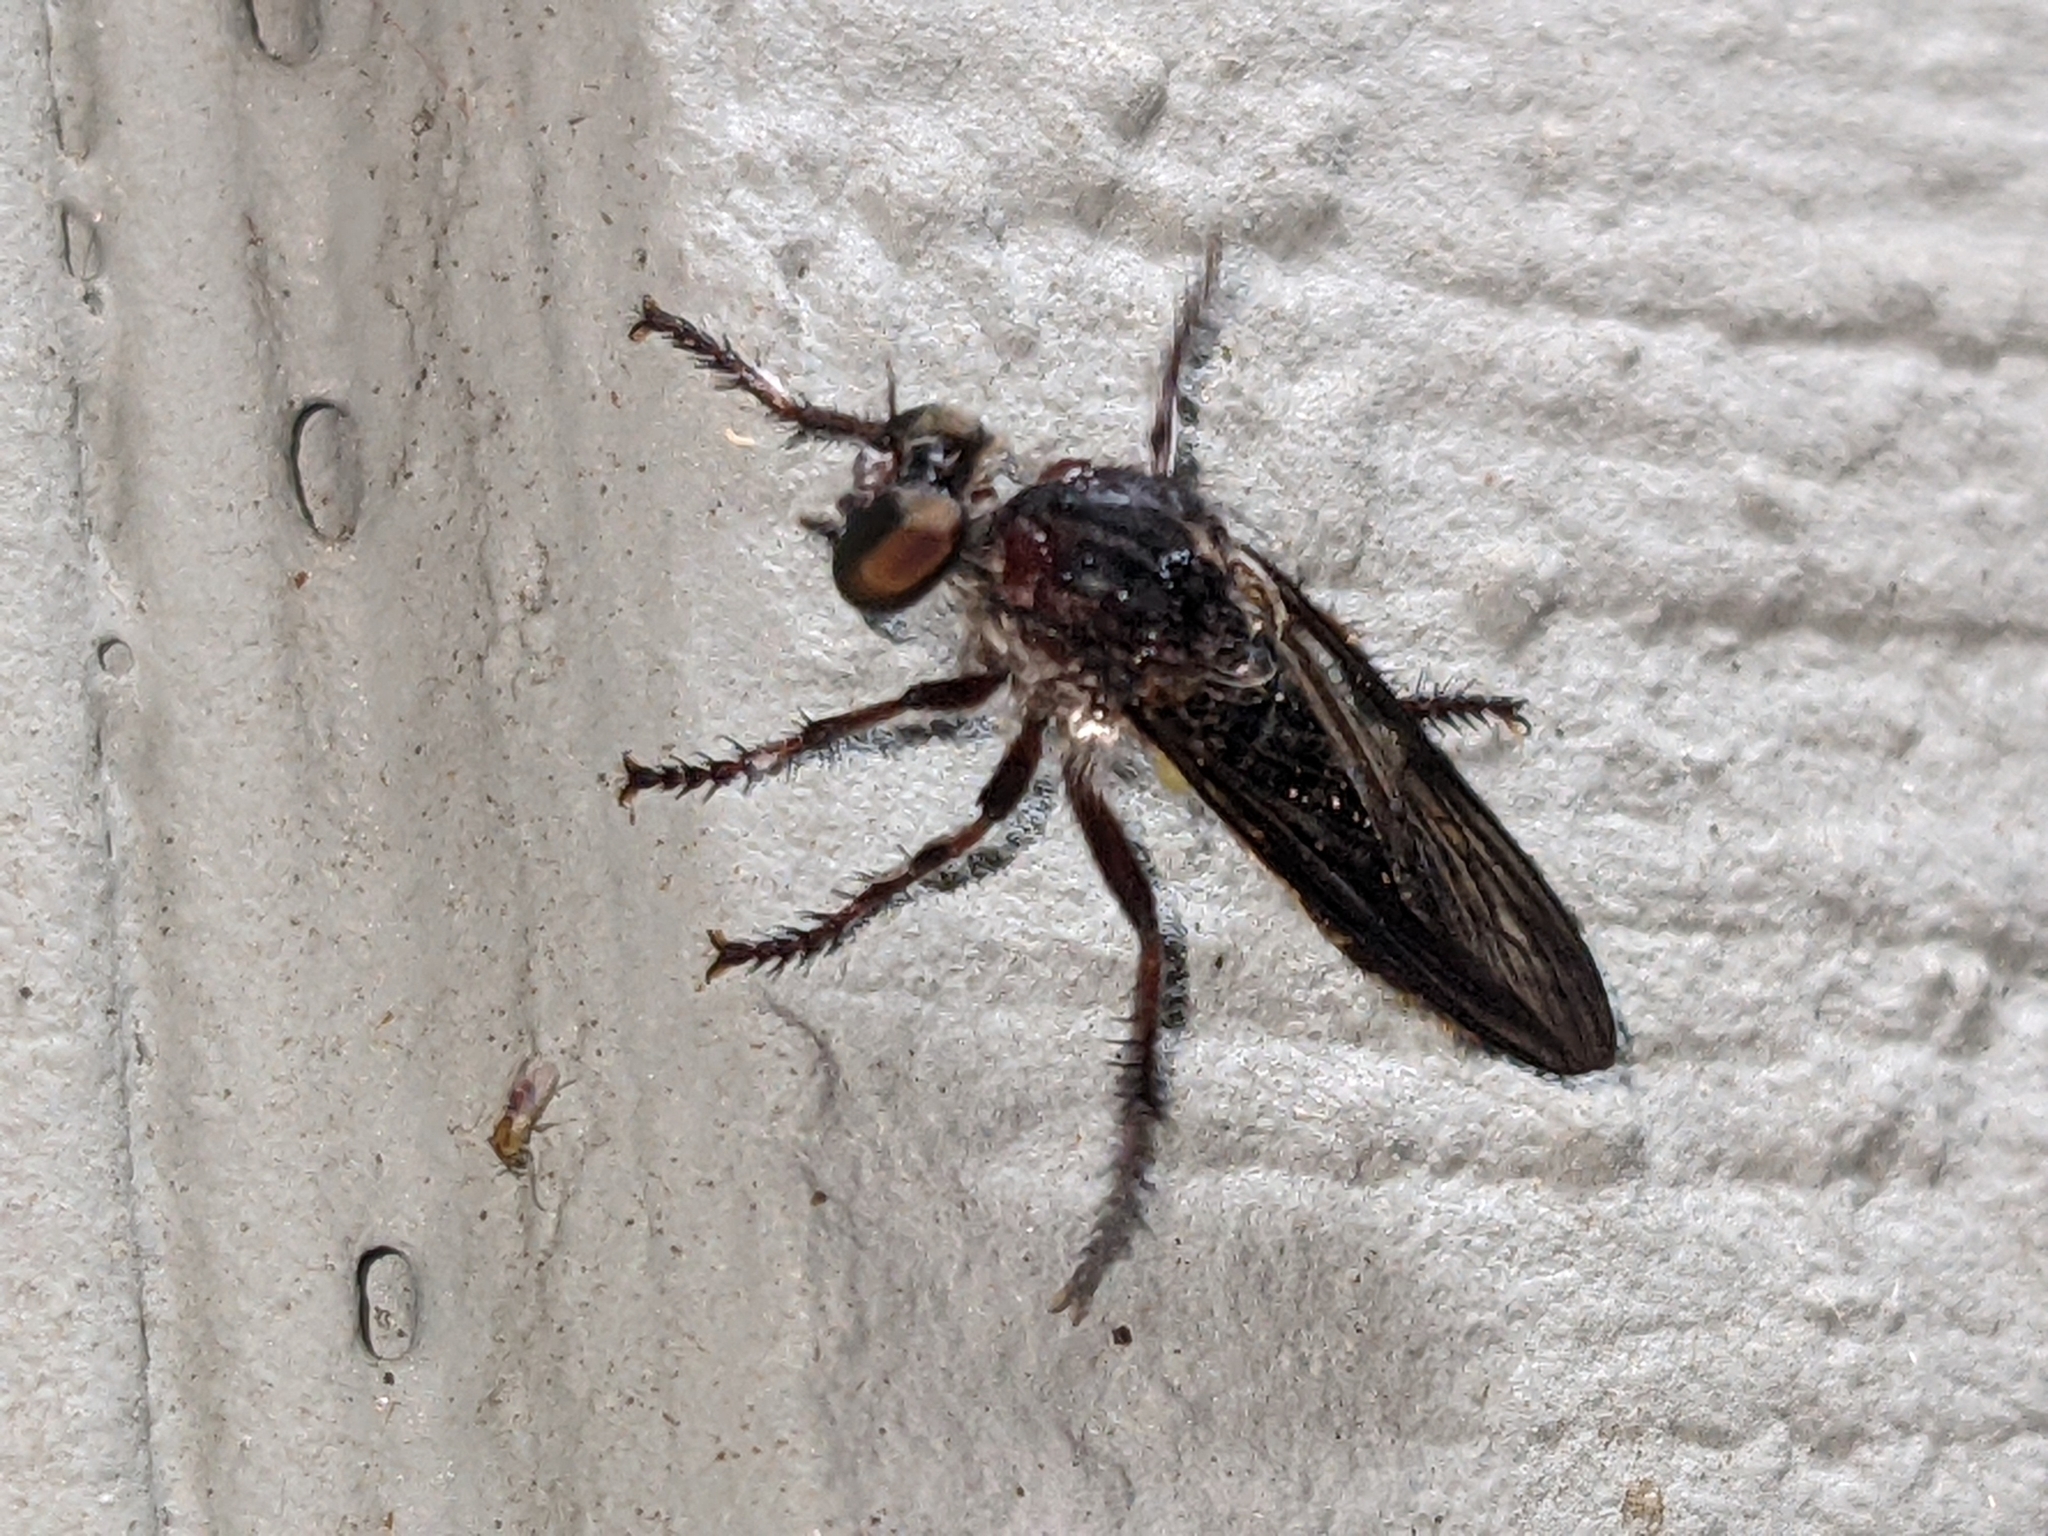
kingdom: Animalia
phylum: Arthropoda
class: Insecta
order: Diptera
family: Asilidae
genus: Heteropogon
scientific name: Heteropogon macerinus
